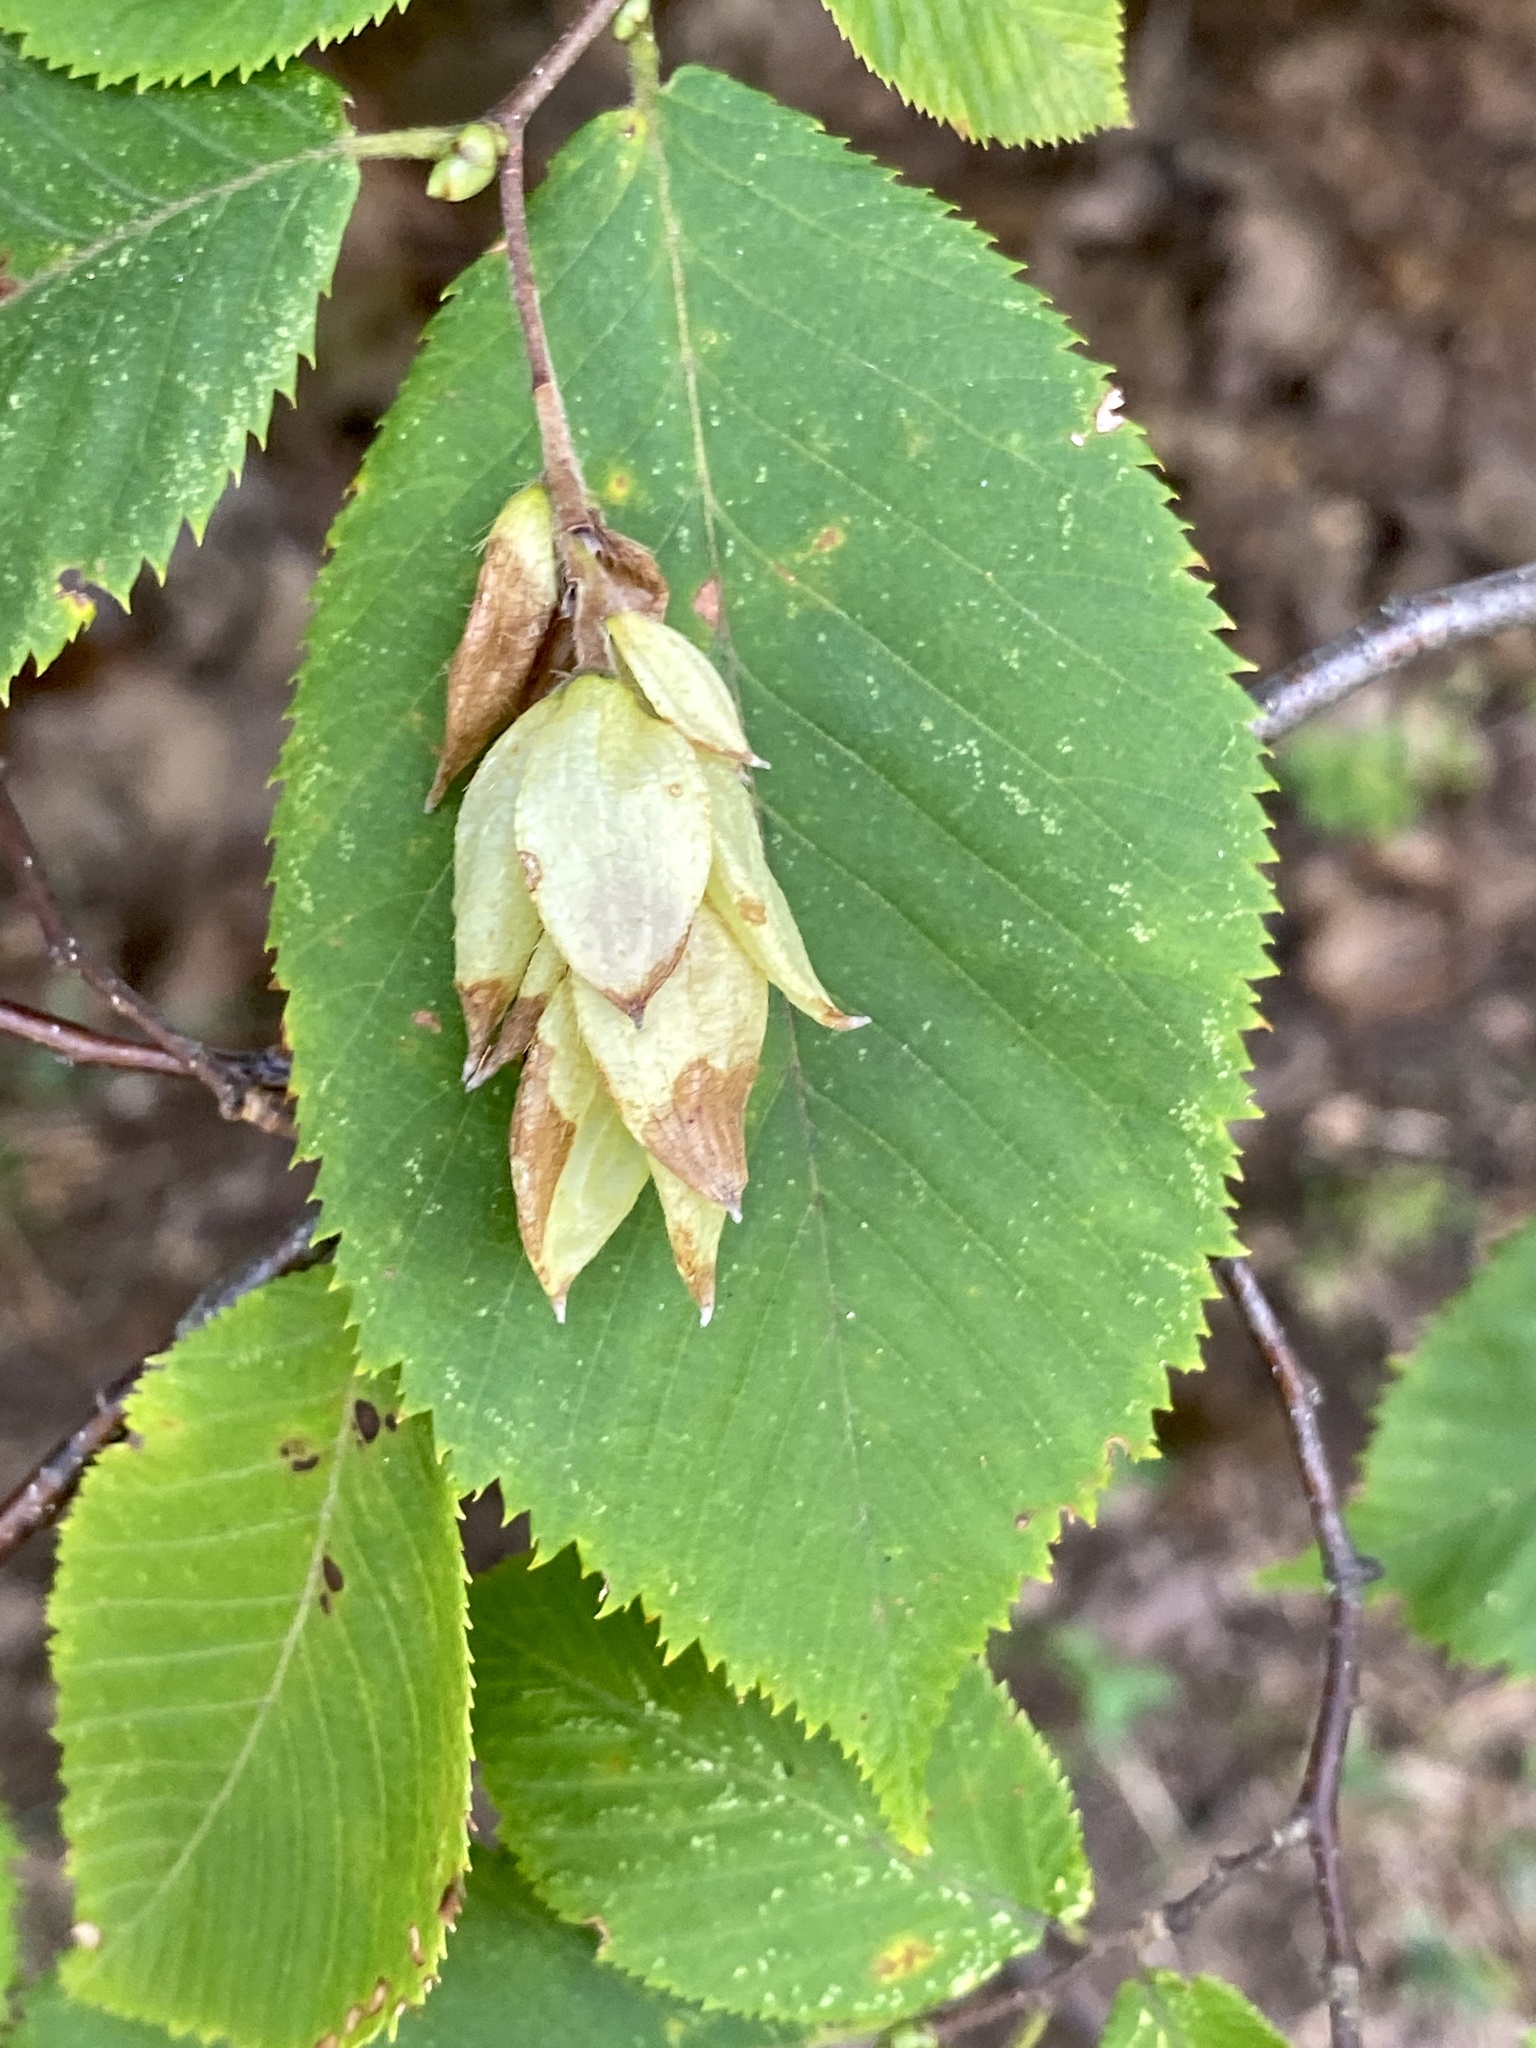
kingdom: Plantae
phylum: Tracheophyta
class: Magnoliopsida
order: Fagales
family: Betulaceae
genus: Ostrya
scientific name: Ostrya virginiana
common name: Ironwood
